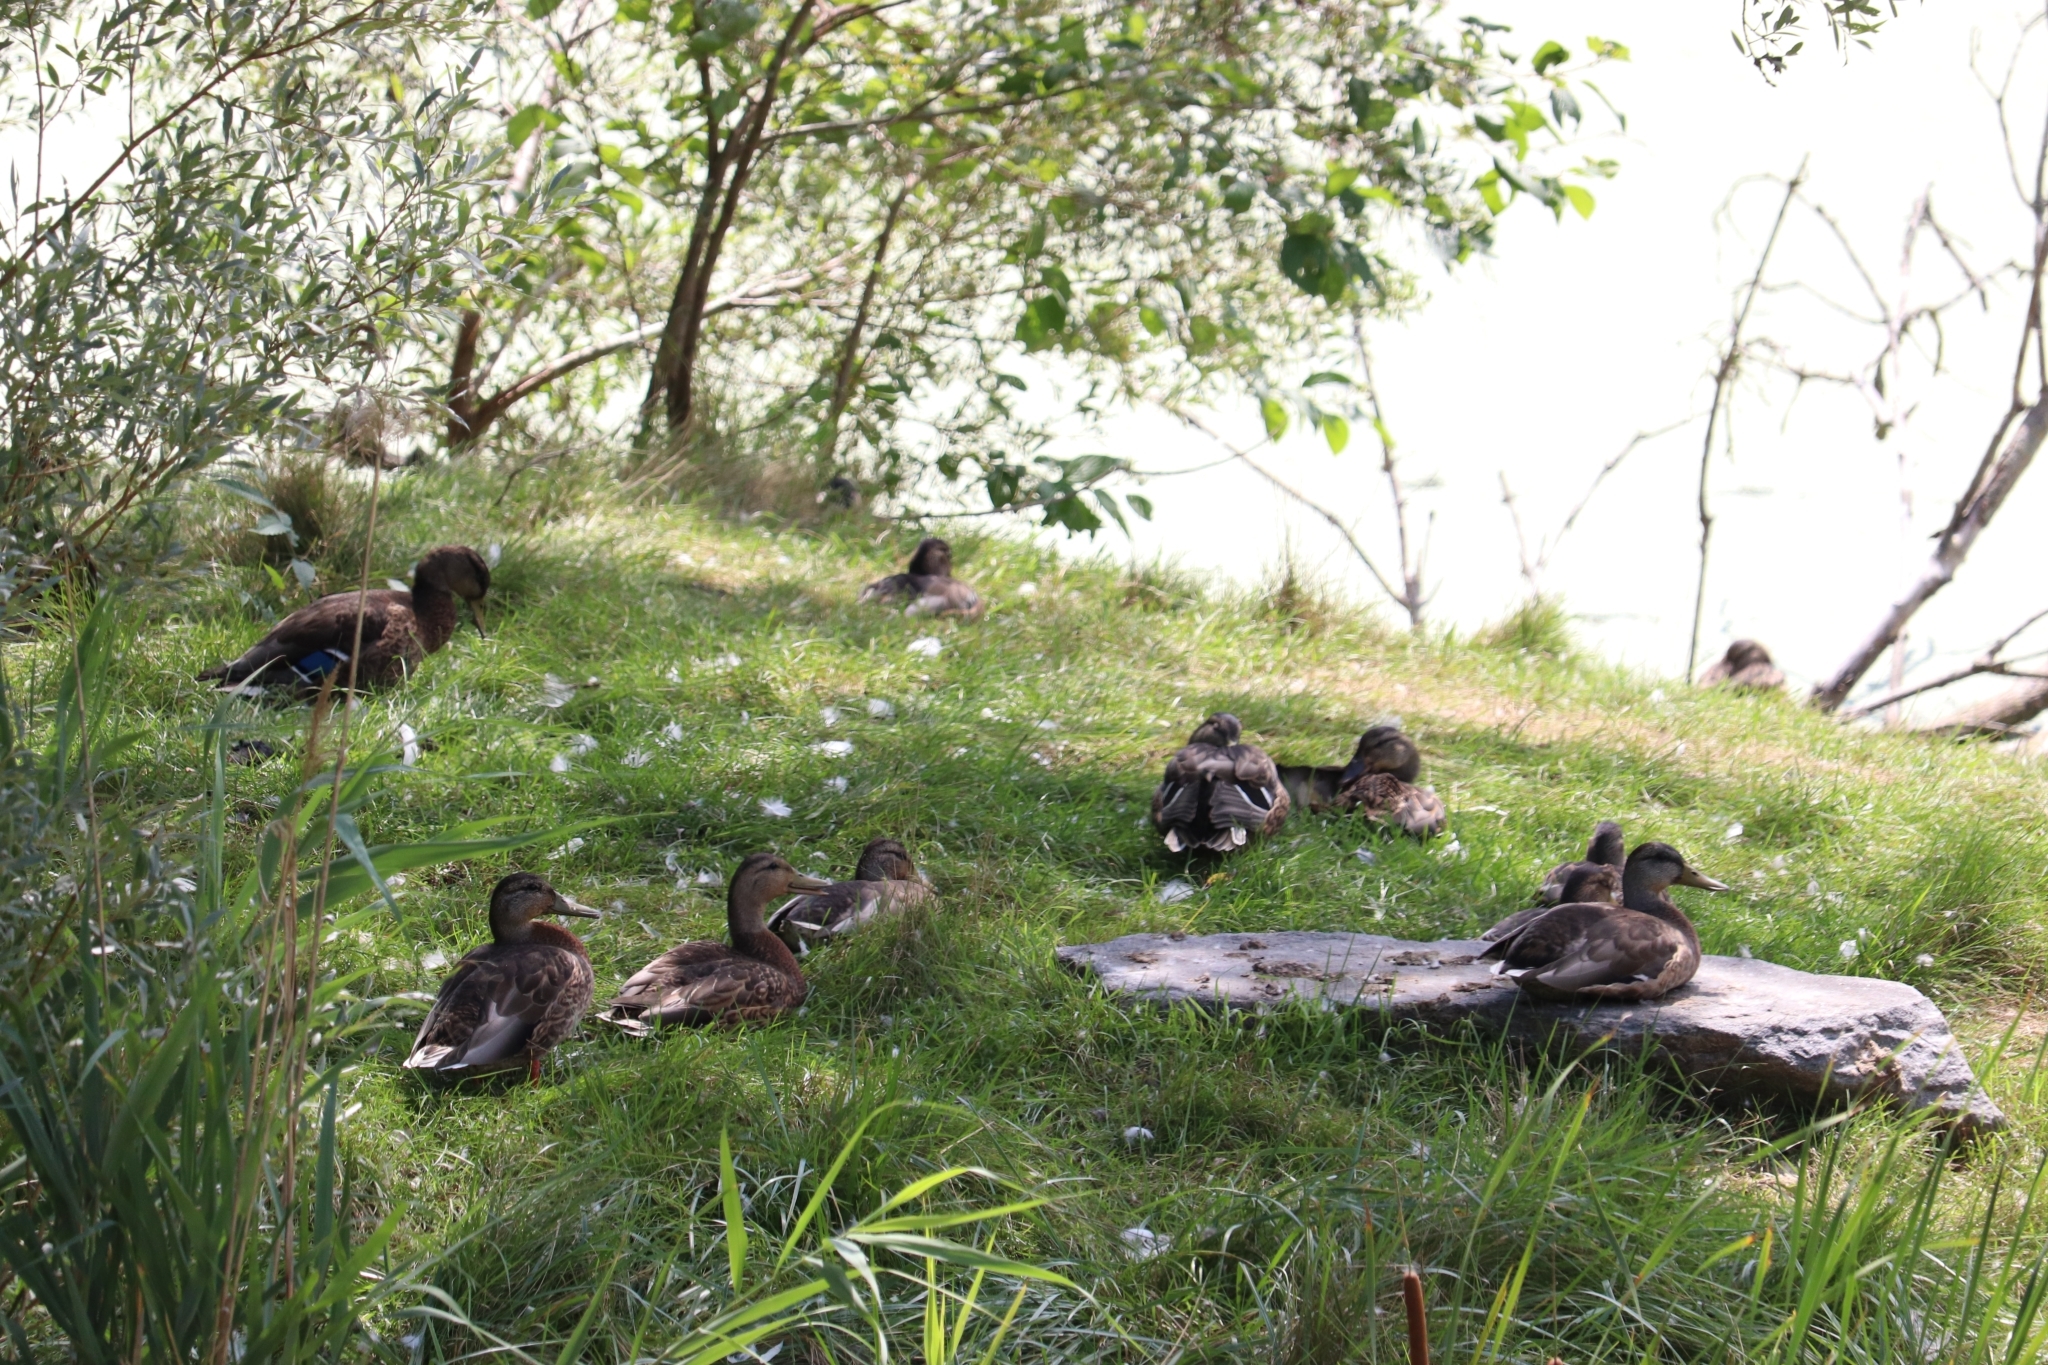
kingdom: Animalia
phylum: Chordata
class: Aves
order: Anseriformes
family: Anatidae
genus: Anas
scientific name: Anas platyrhynchos
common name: Mallard
